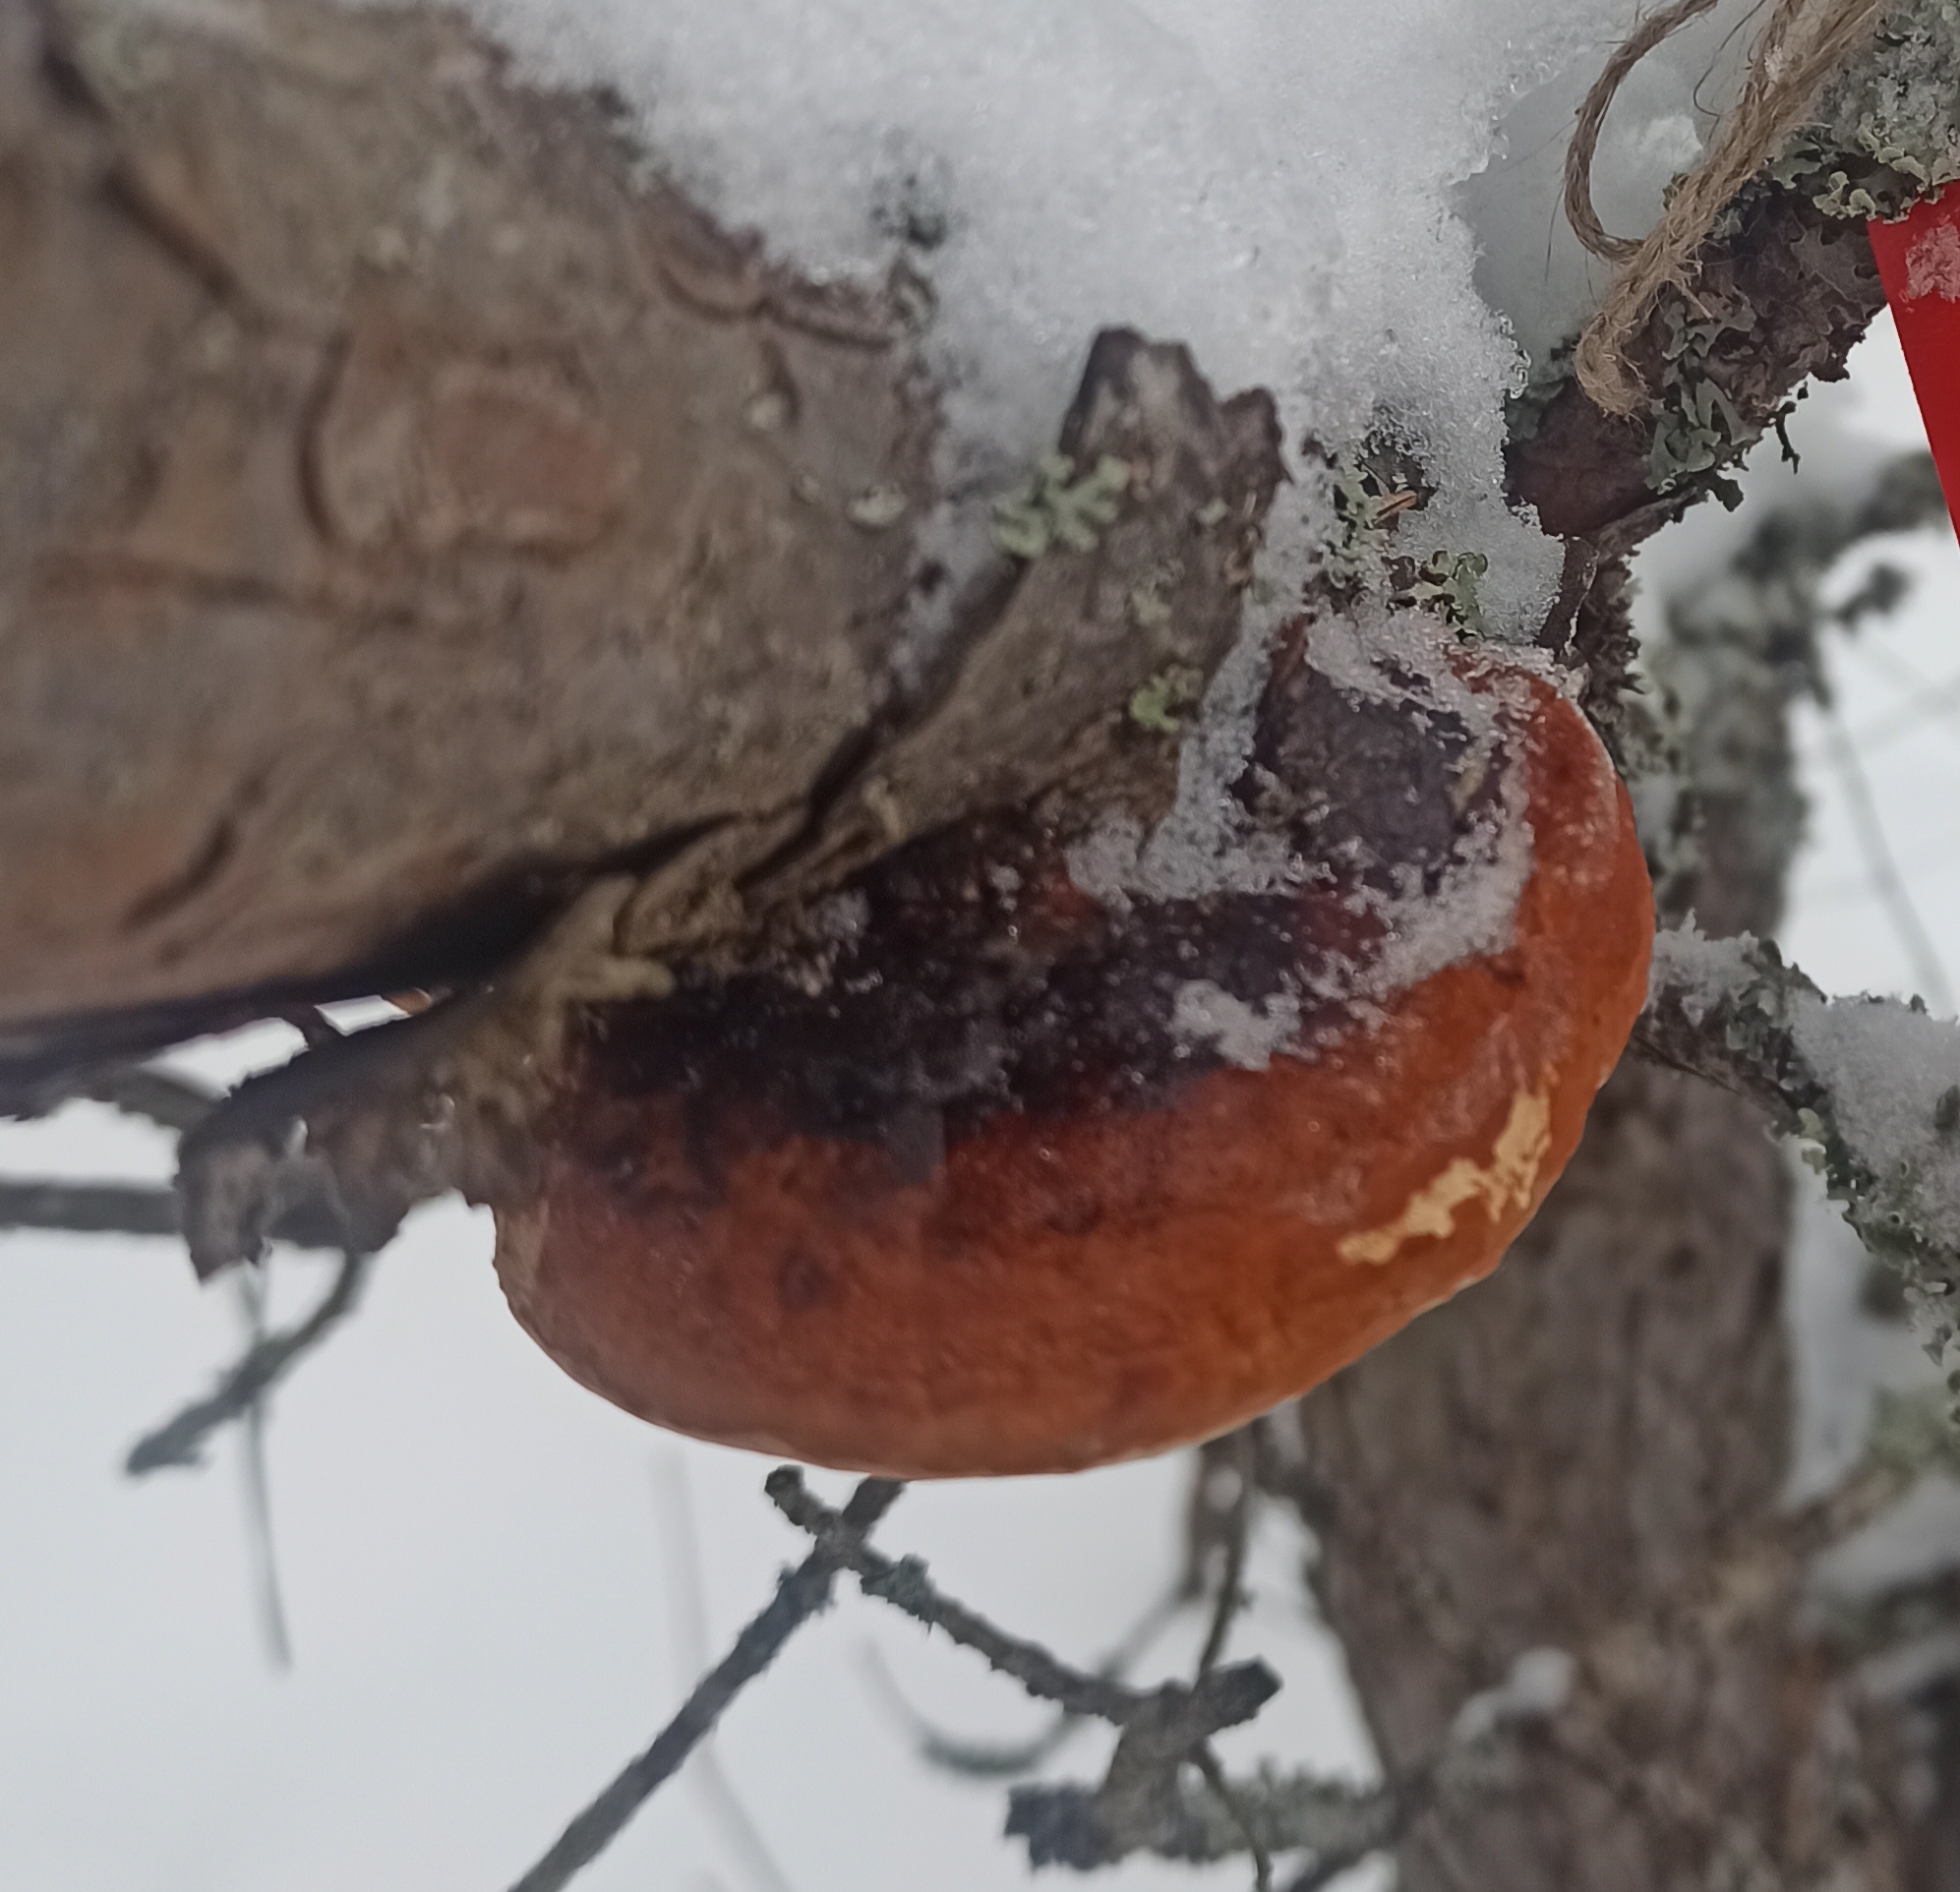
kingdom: Fungi
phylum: Basidiomycota
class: Agaricomycetes
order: Polyporales
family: Fomitopsidaceae
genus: Fomitopsis
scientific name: Fomitopsis pinicola
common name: Red-belted bracket
